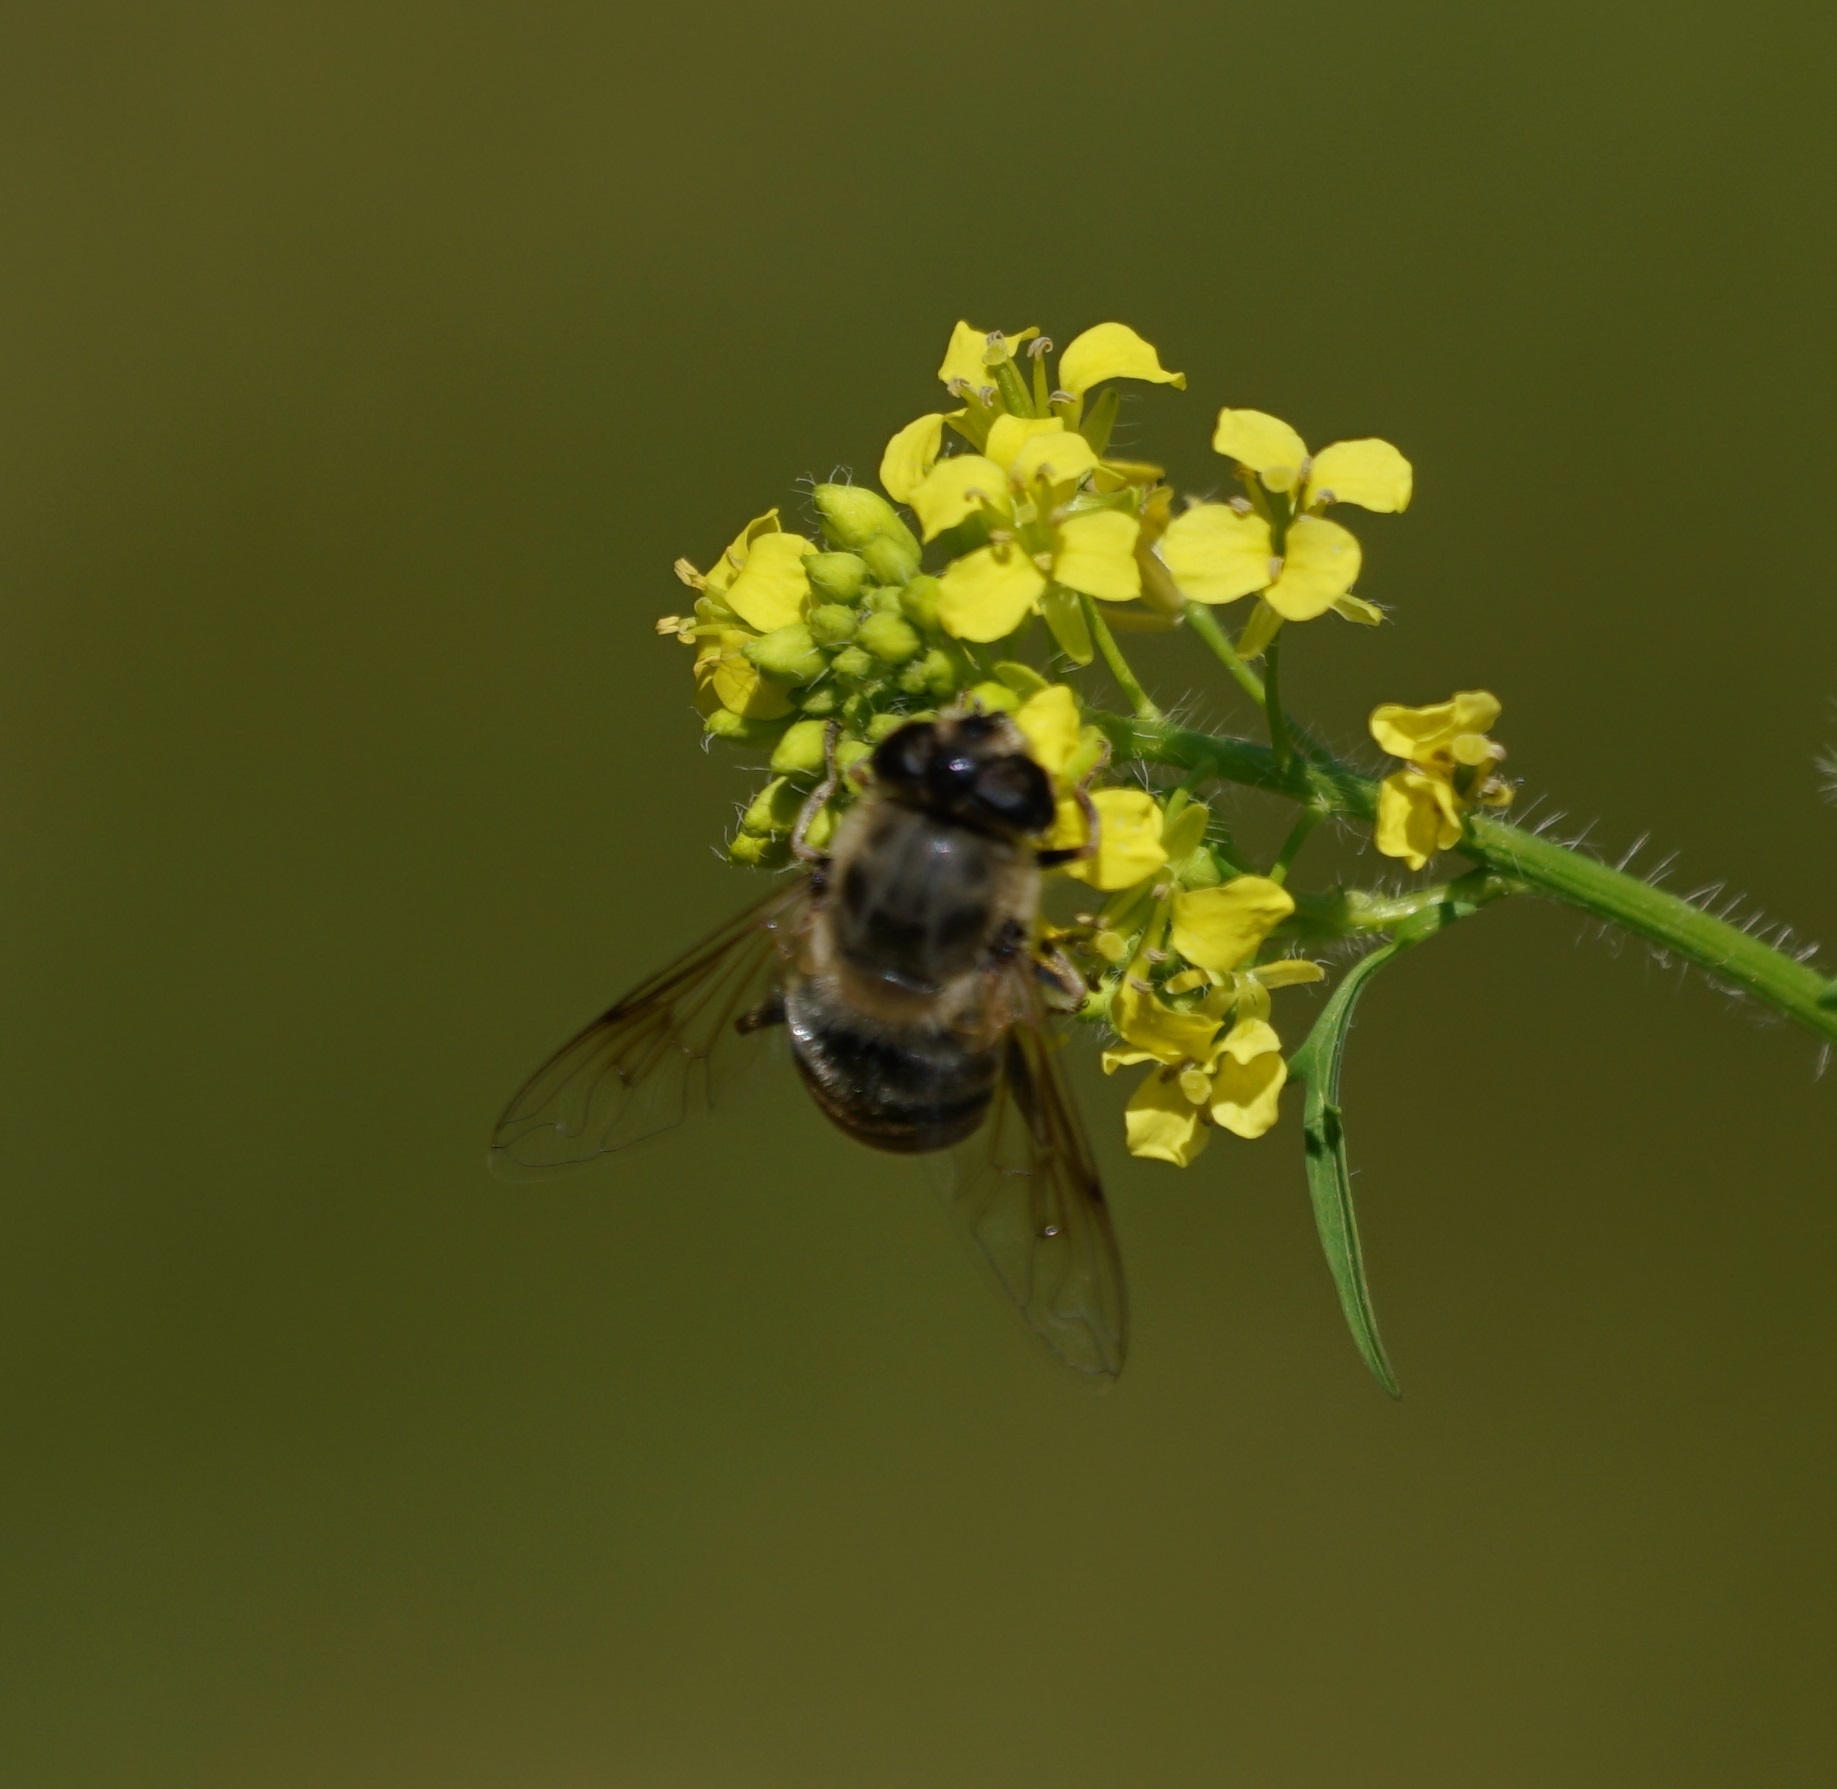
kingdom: Animalia
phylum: Arthropoda
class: Insecta
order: Diptera
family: Syrphidae
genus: Eristalis
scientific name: Eristalis tenax
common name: Drone fly
